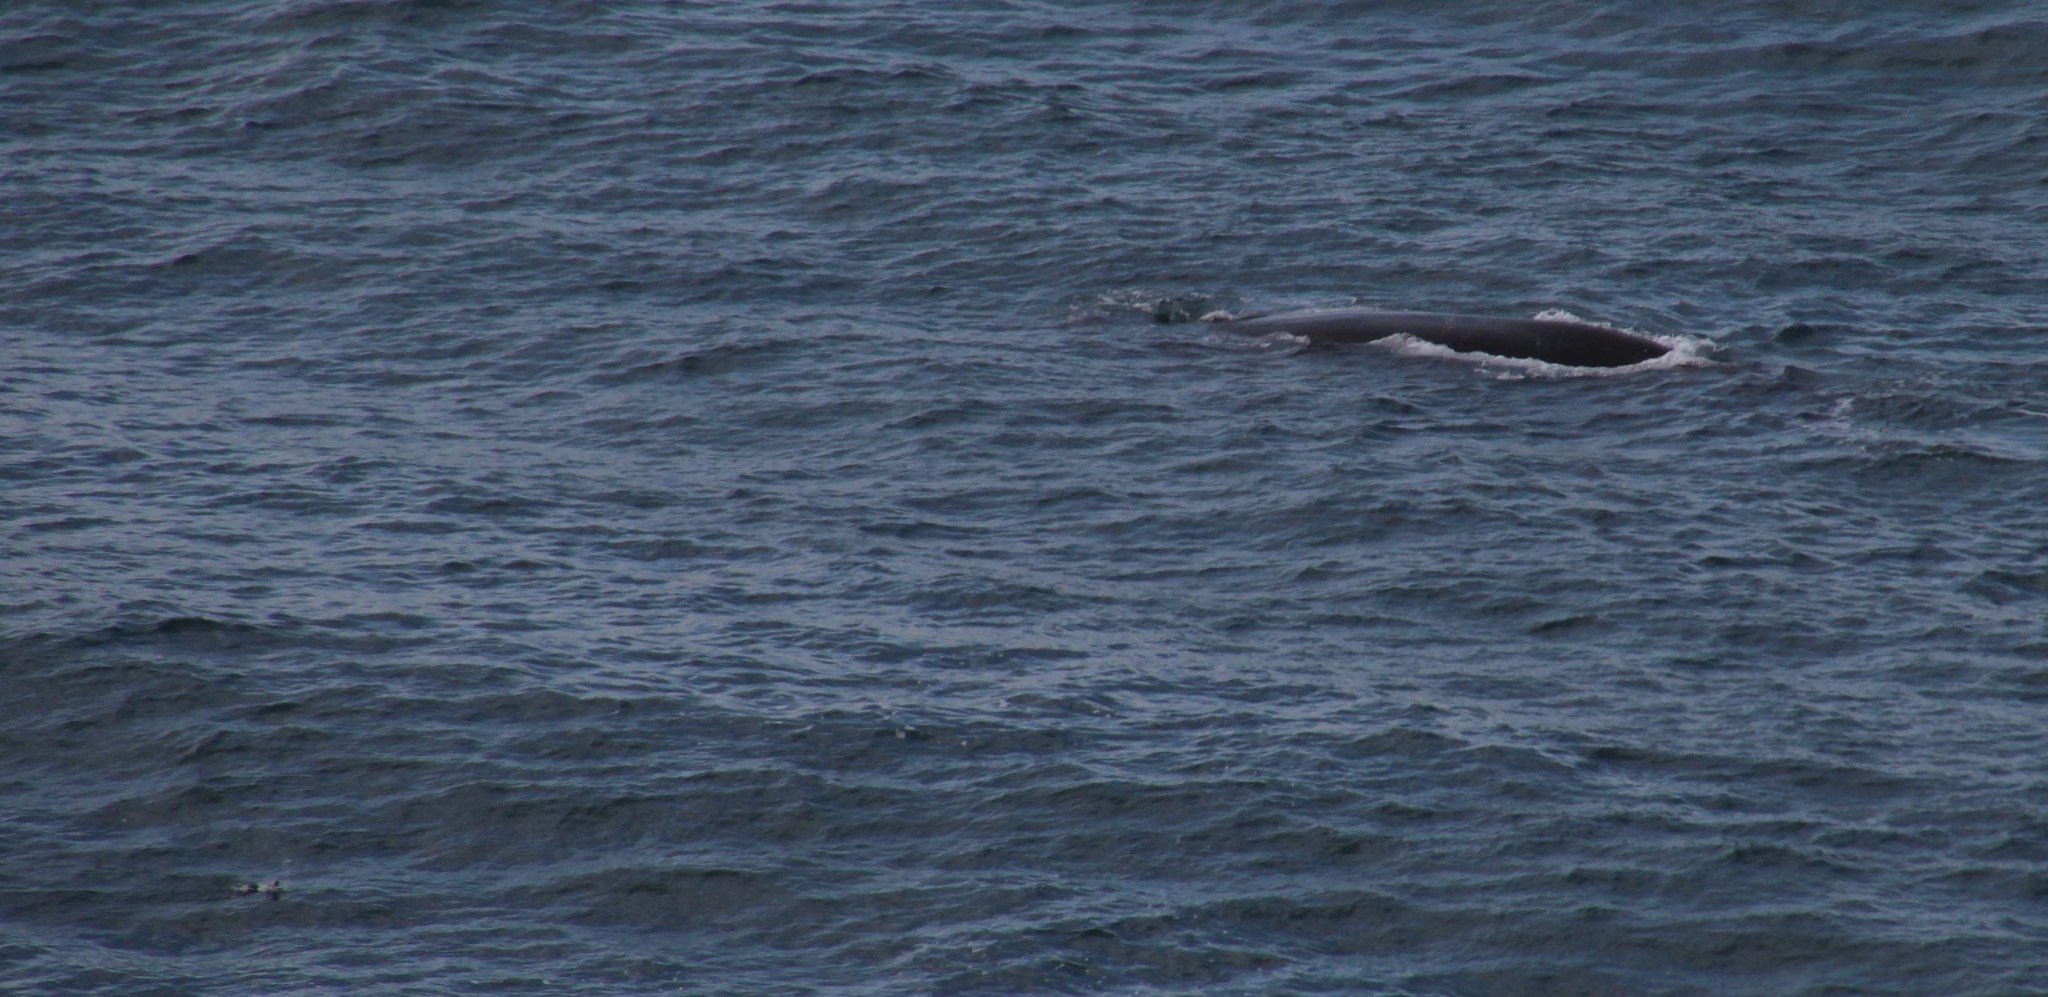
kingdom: Animalia
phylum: Chordata
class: Mammalia
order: Cetacea
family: Balaenidae
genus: Eubalaena
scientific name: Eubalaena australis
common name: Southern right whale
